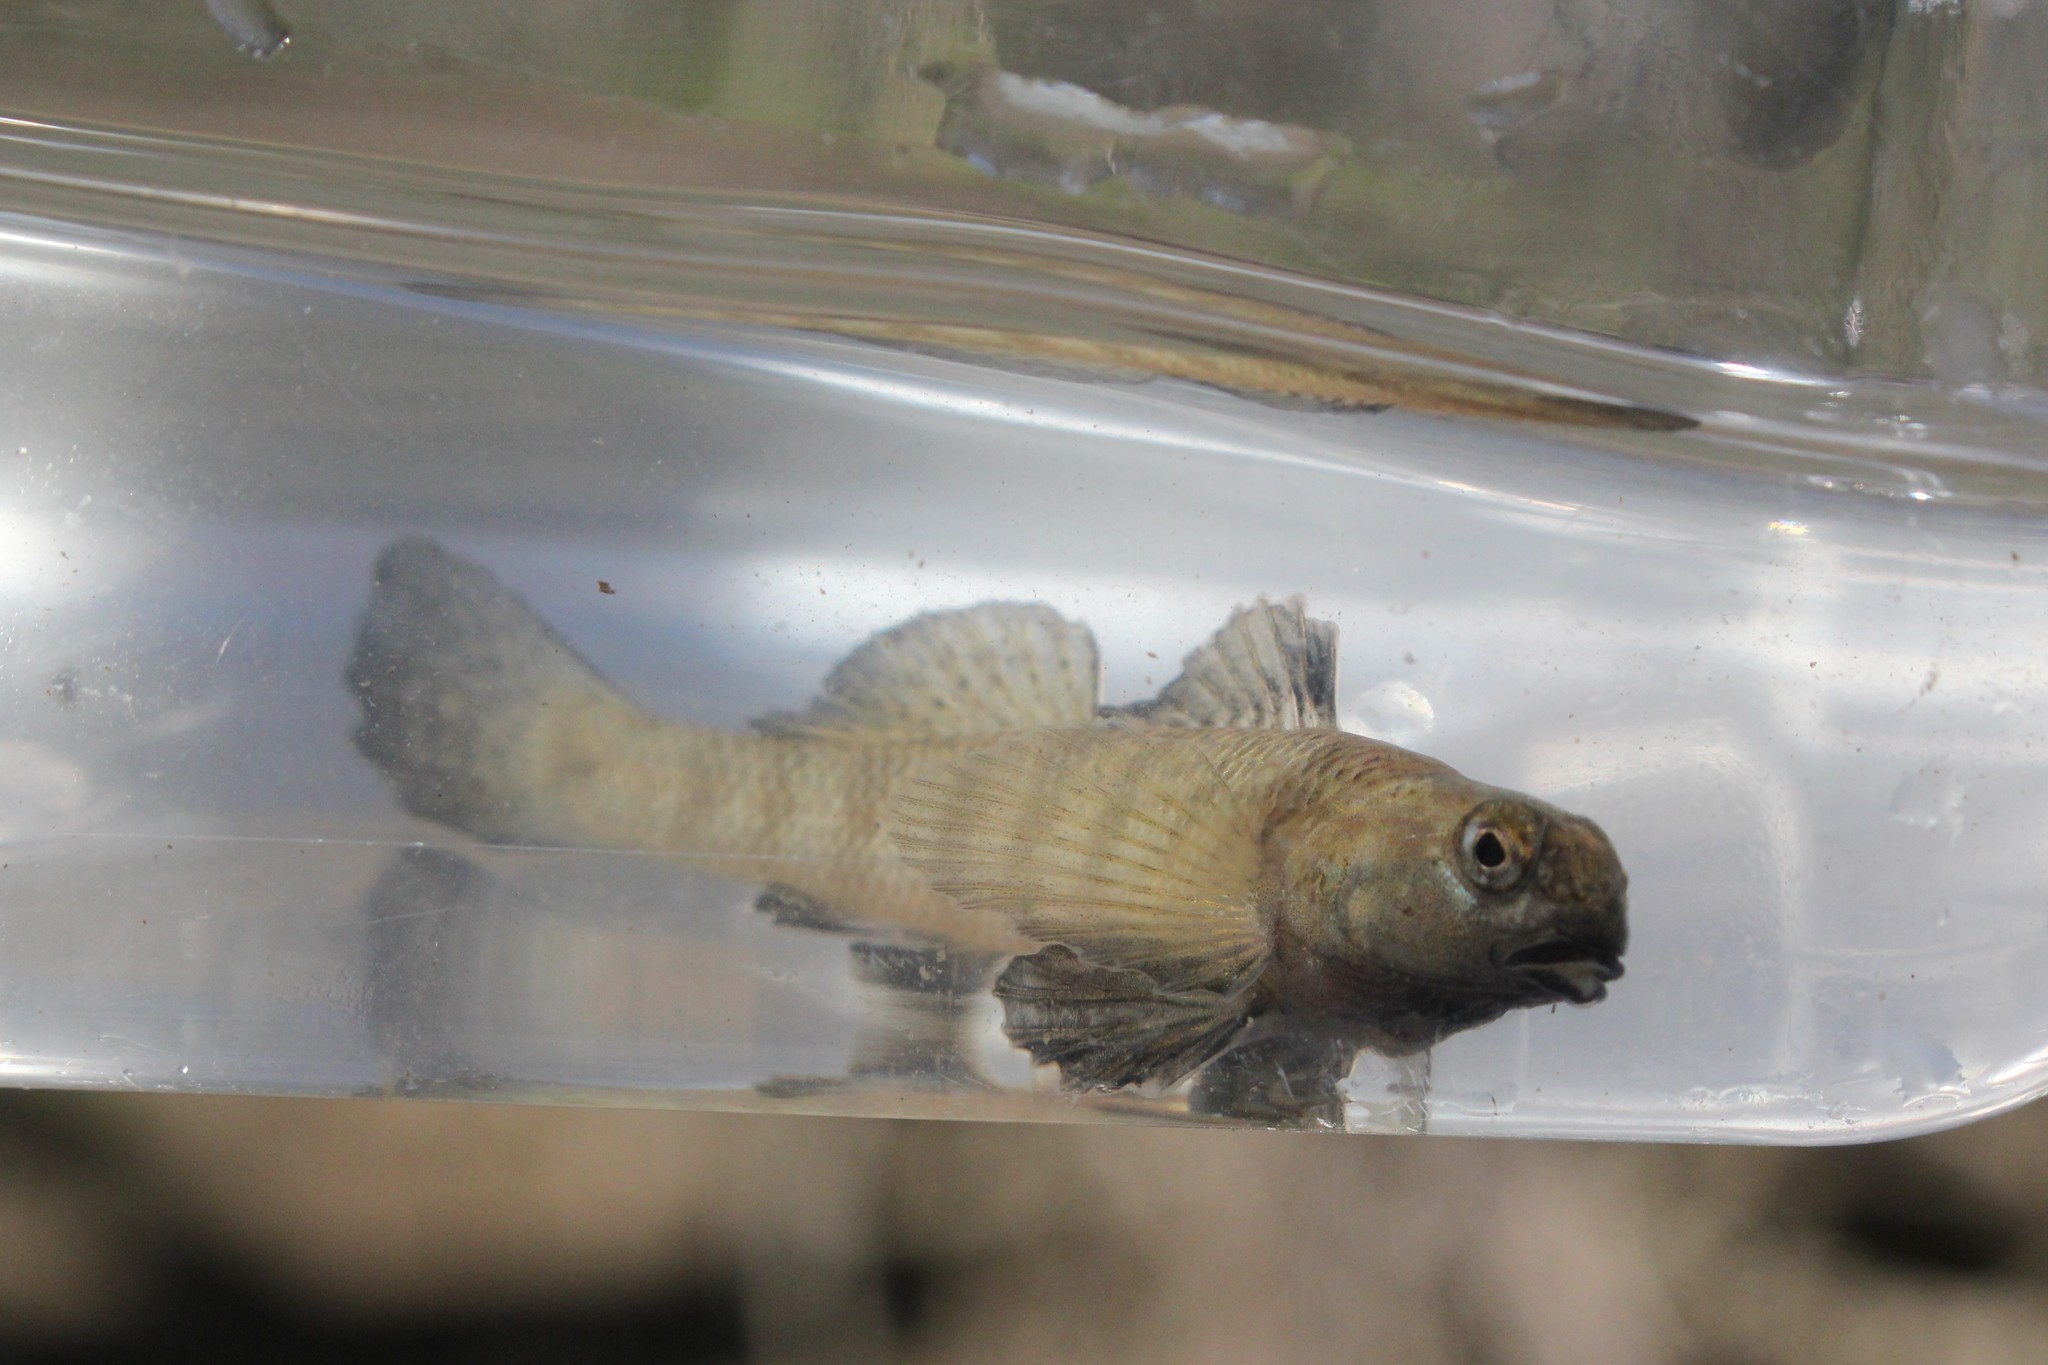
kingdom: Animalia
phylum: Chordata
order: Perciformes
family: Percidae
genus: Etheostoma
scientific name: Etheostoma nigrum
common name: Johnny darter
